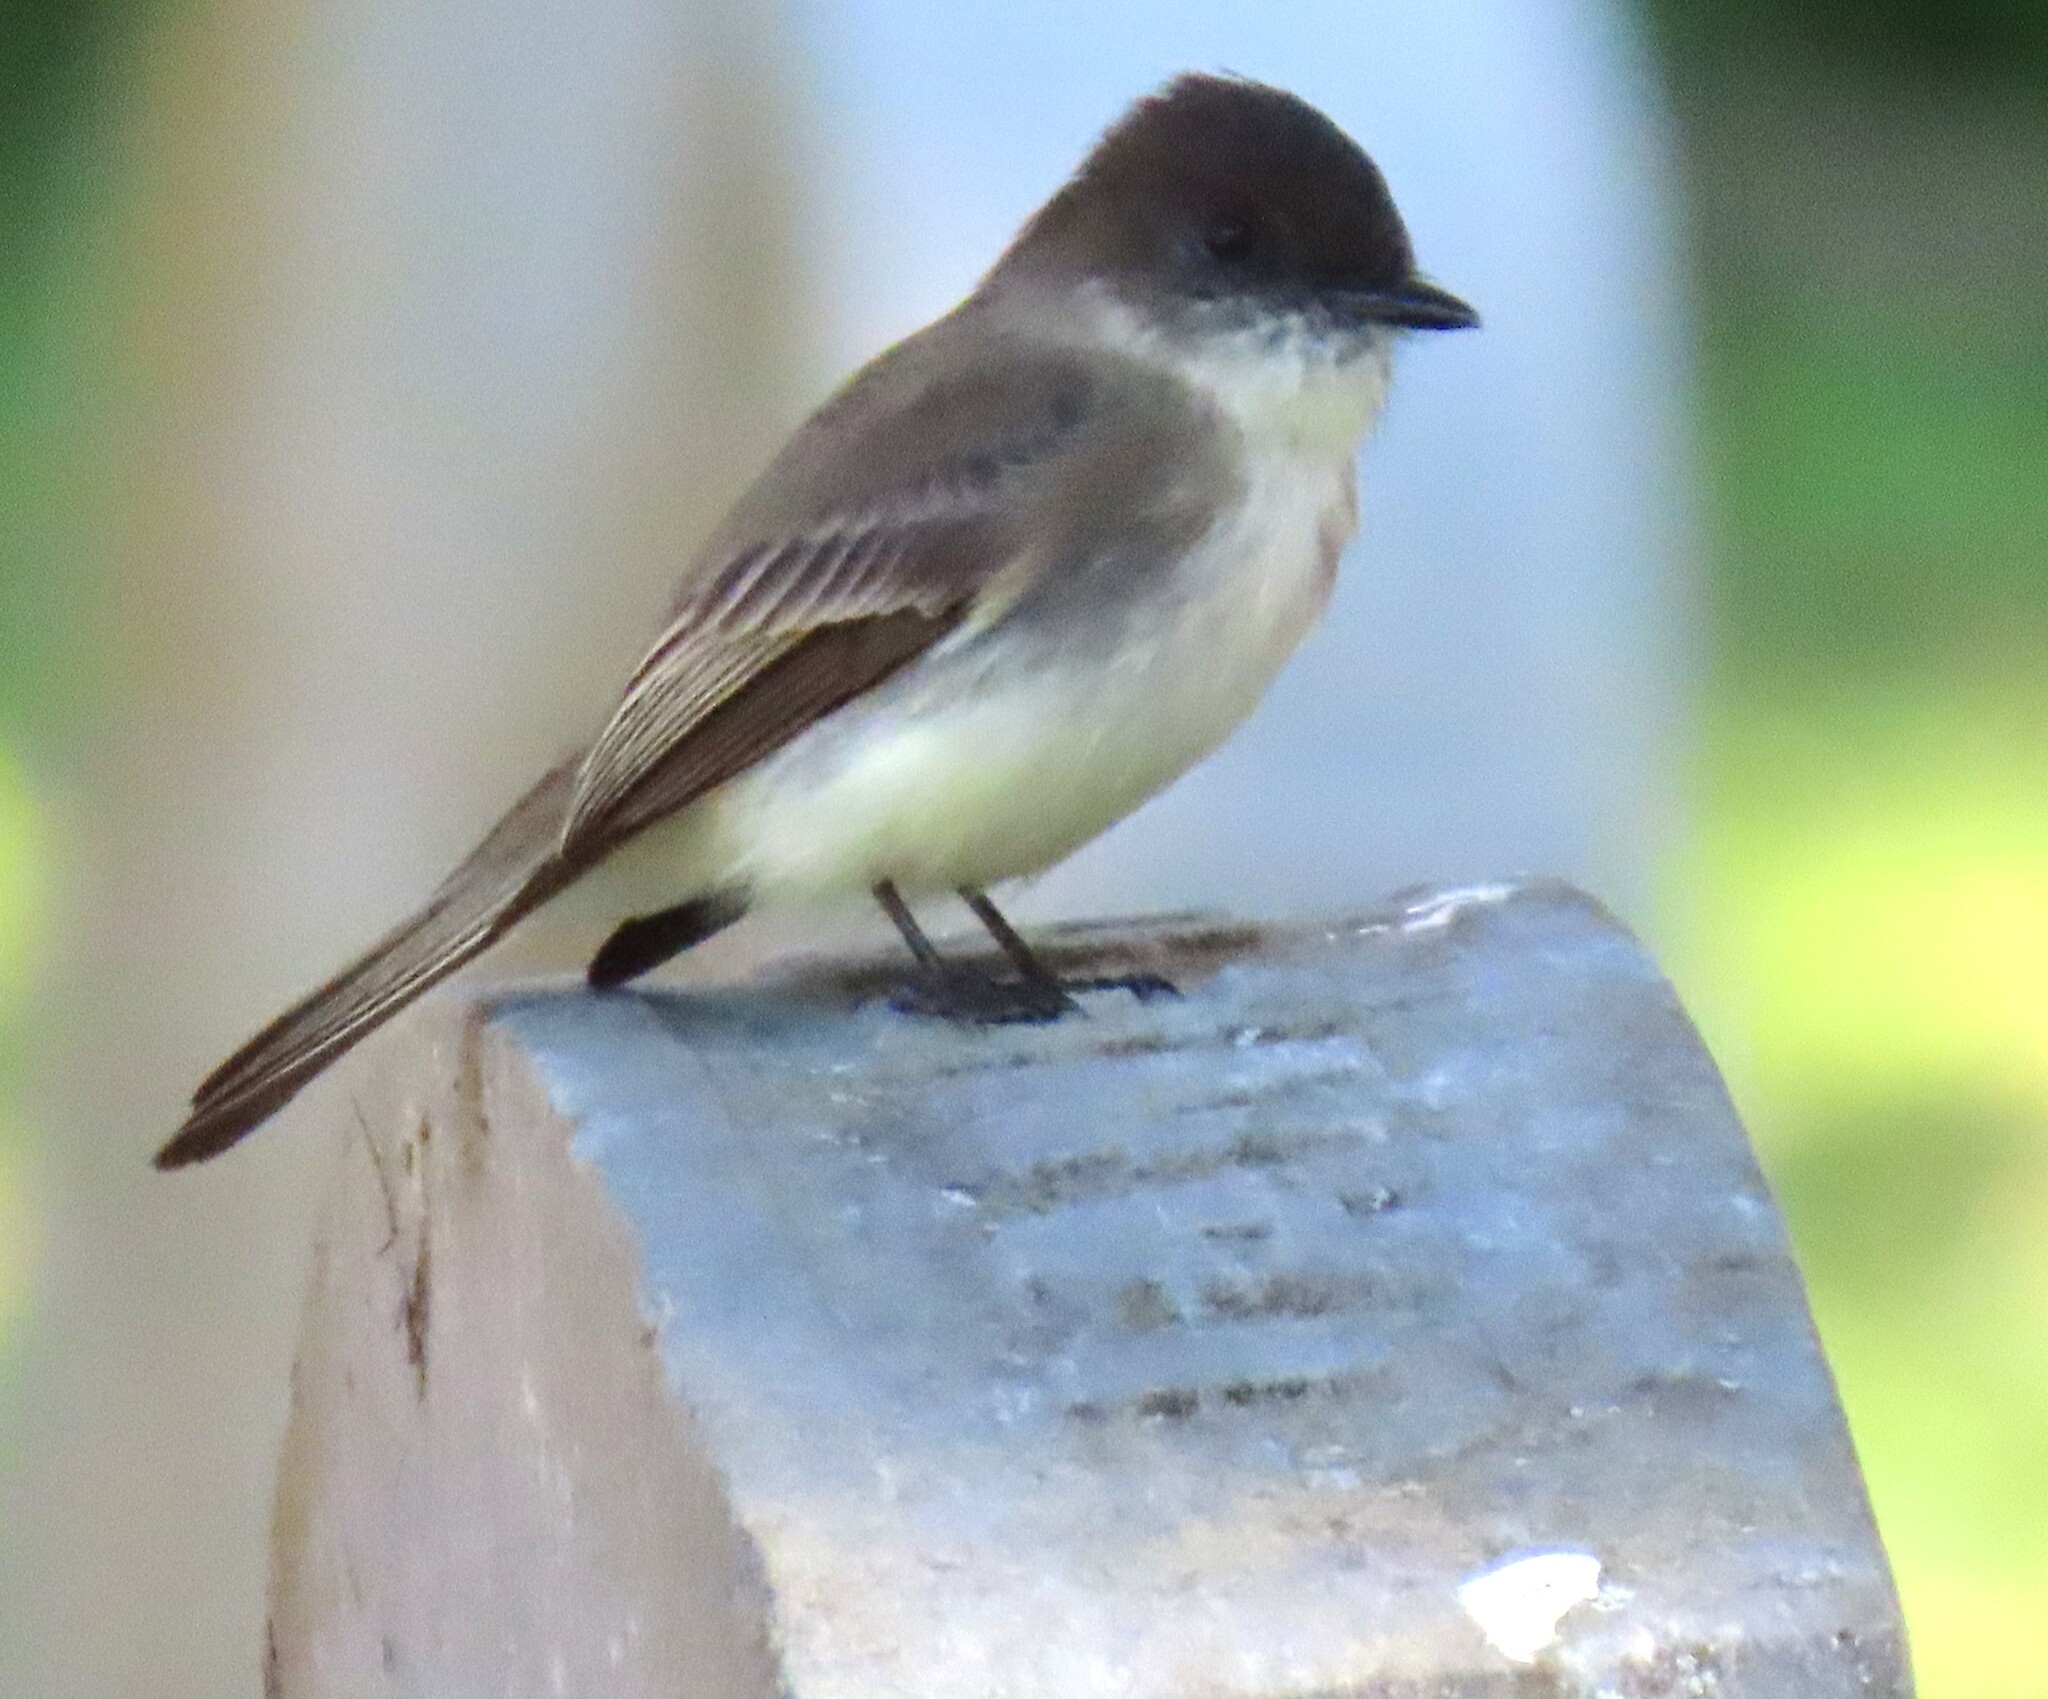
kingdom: Animalia
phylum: Chordata
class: Aves
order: Passeriformes
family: Tyrannidae
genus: Sayornis
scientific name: Sayornis phoebe
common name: Eastern phoebe
